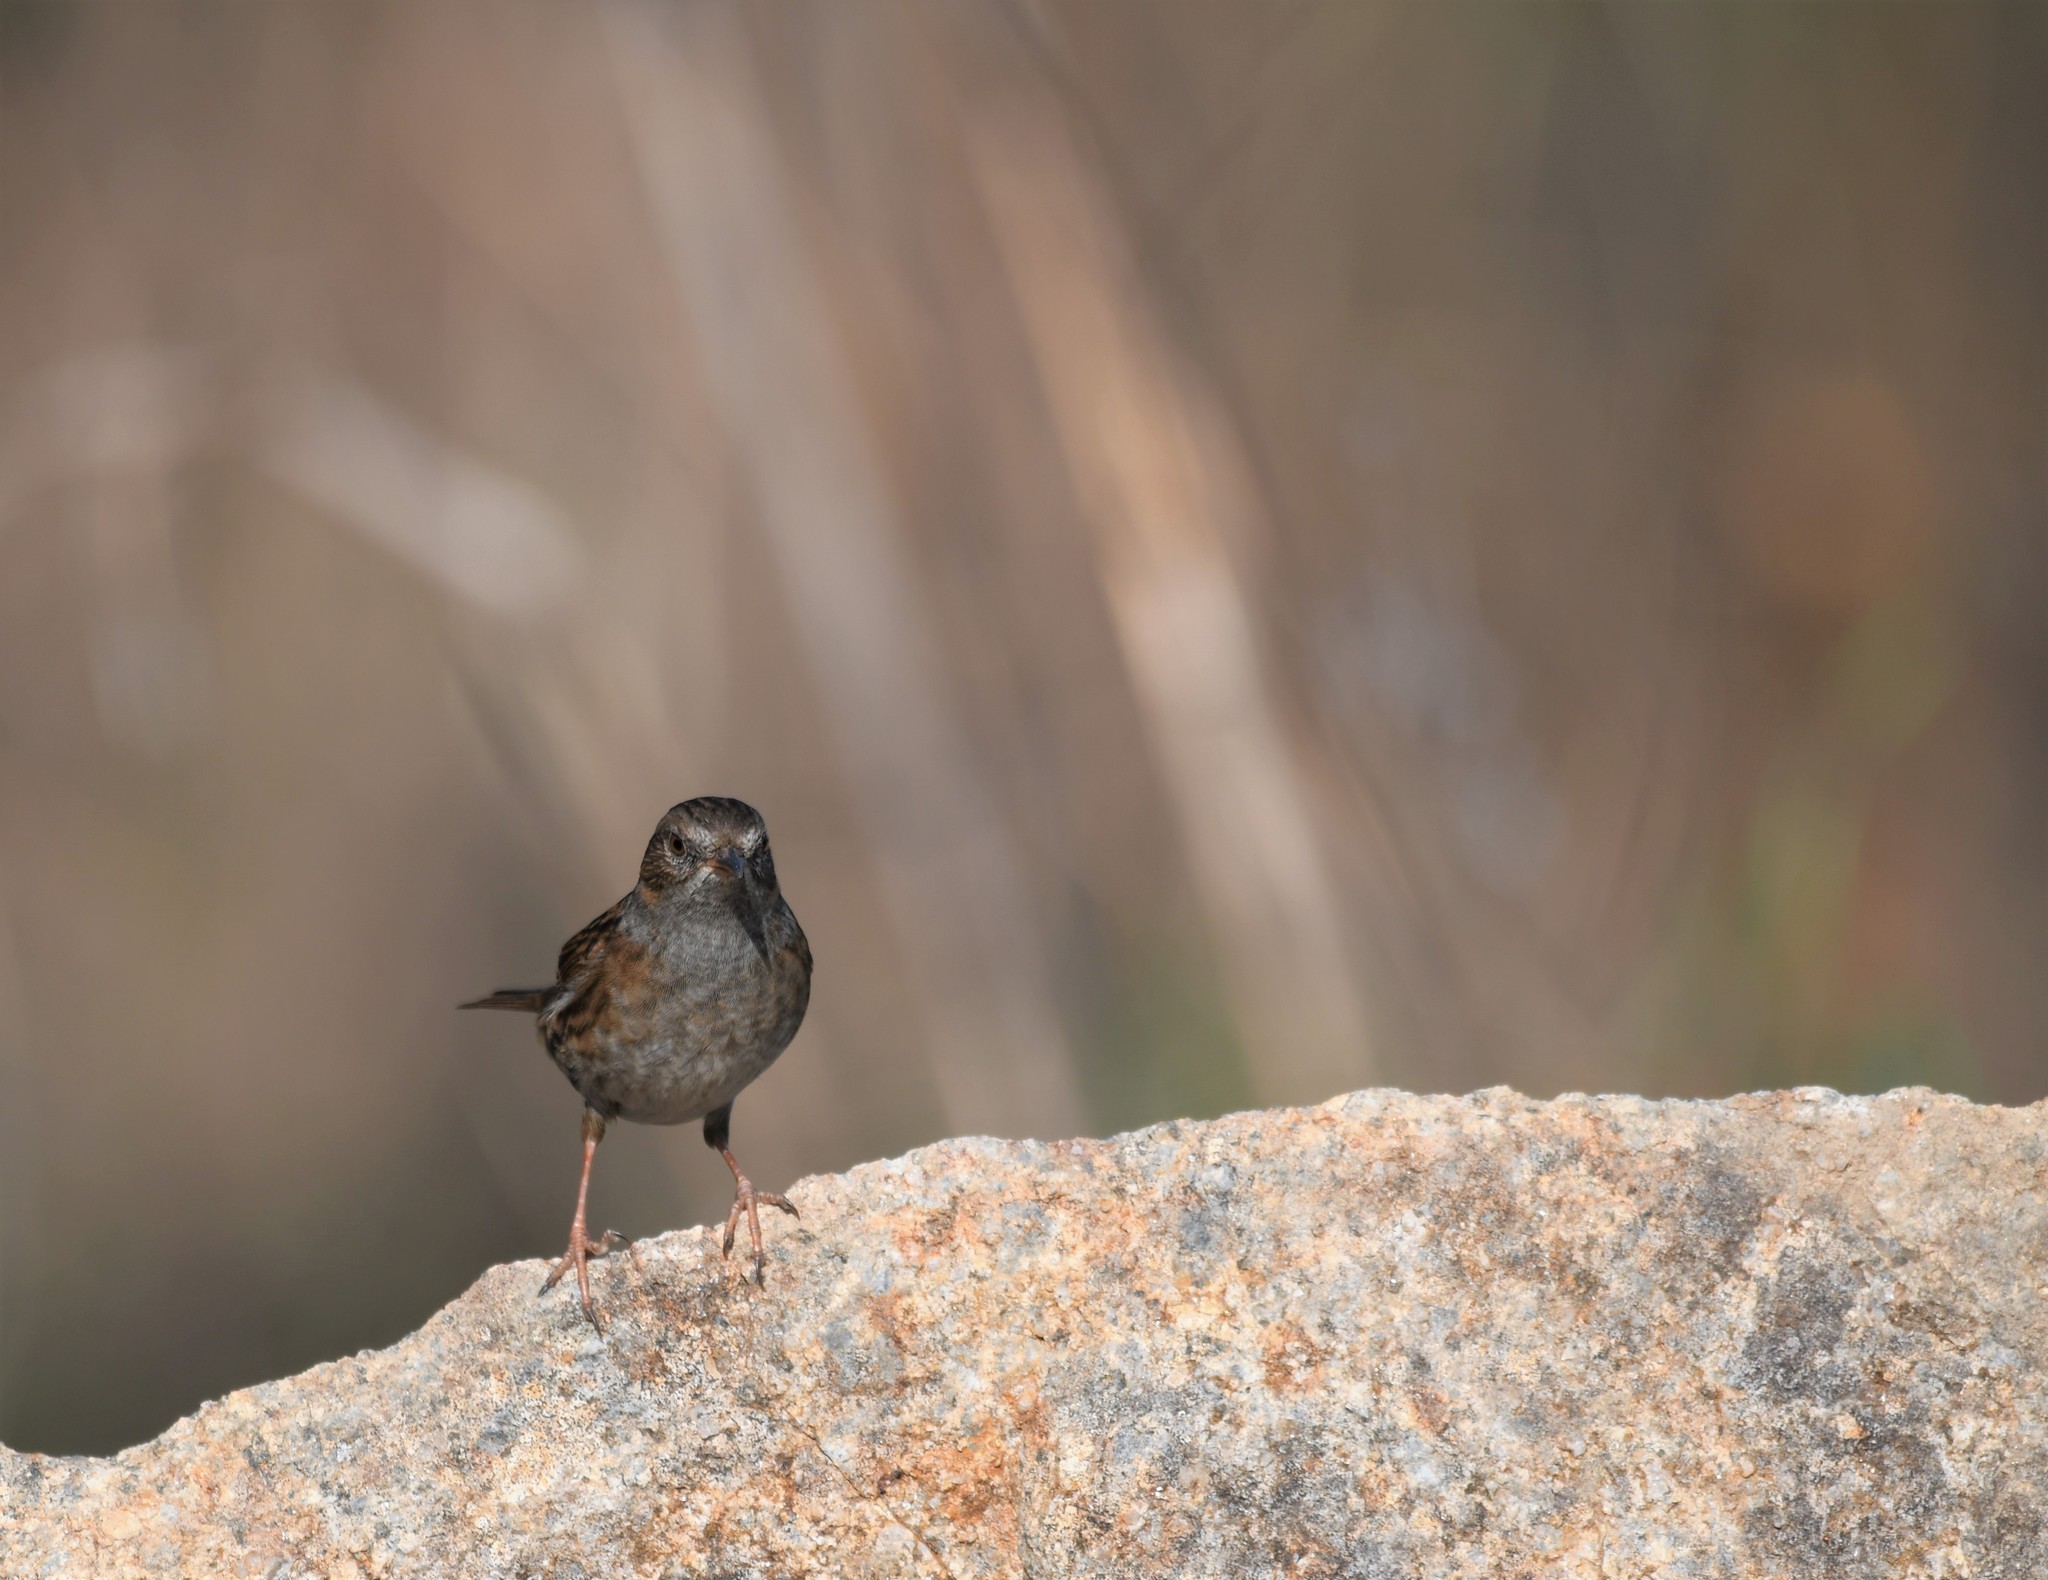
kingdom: Animalia
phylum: Chordata
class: Aves
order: Passeriformes
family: Prunellidae
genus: Prunella
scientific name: Prunella modularis
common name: Dunnock
